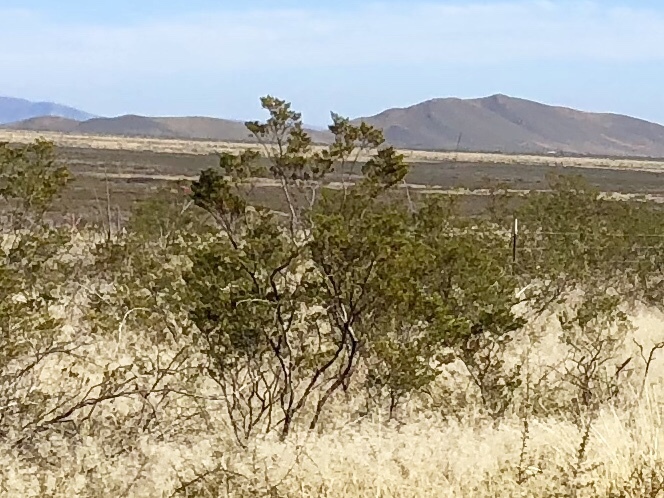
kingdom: Plantae
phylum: Tracheophyta
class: Magnoliopsida
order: Zygophyllales
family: Zygophyllaceae
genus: Larrea
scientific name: Larrea tridentata
